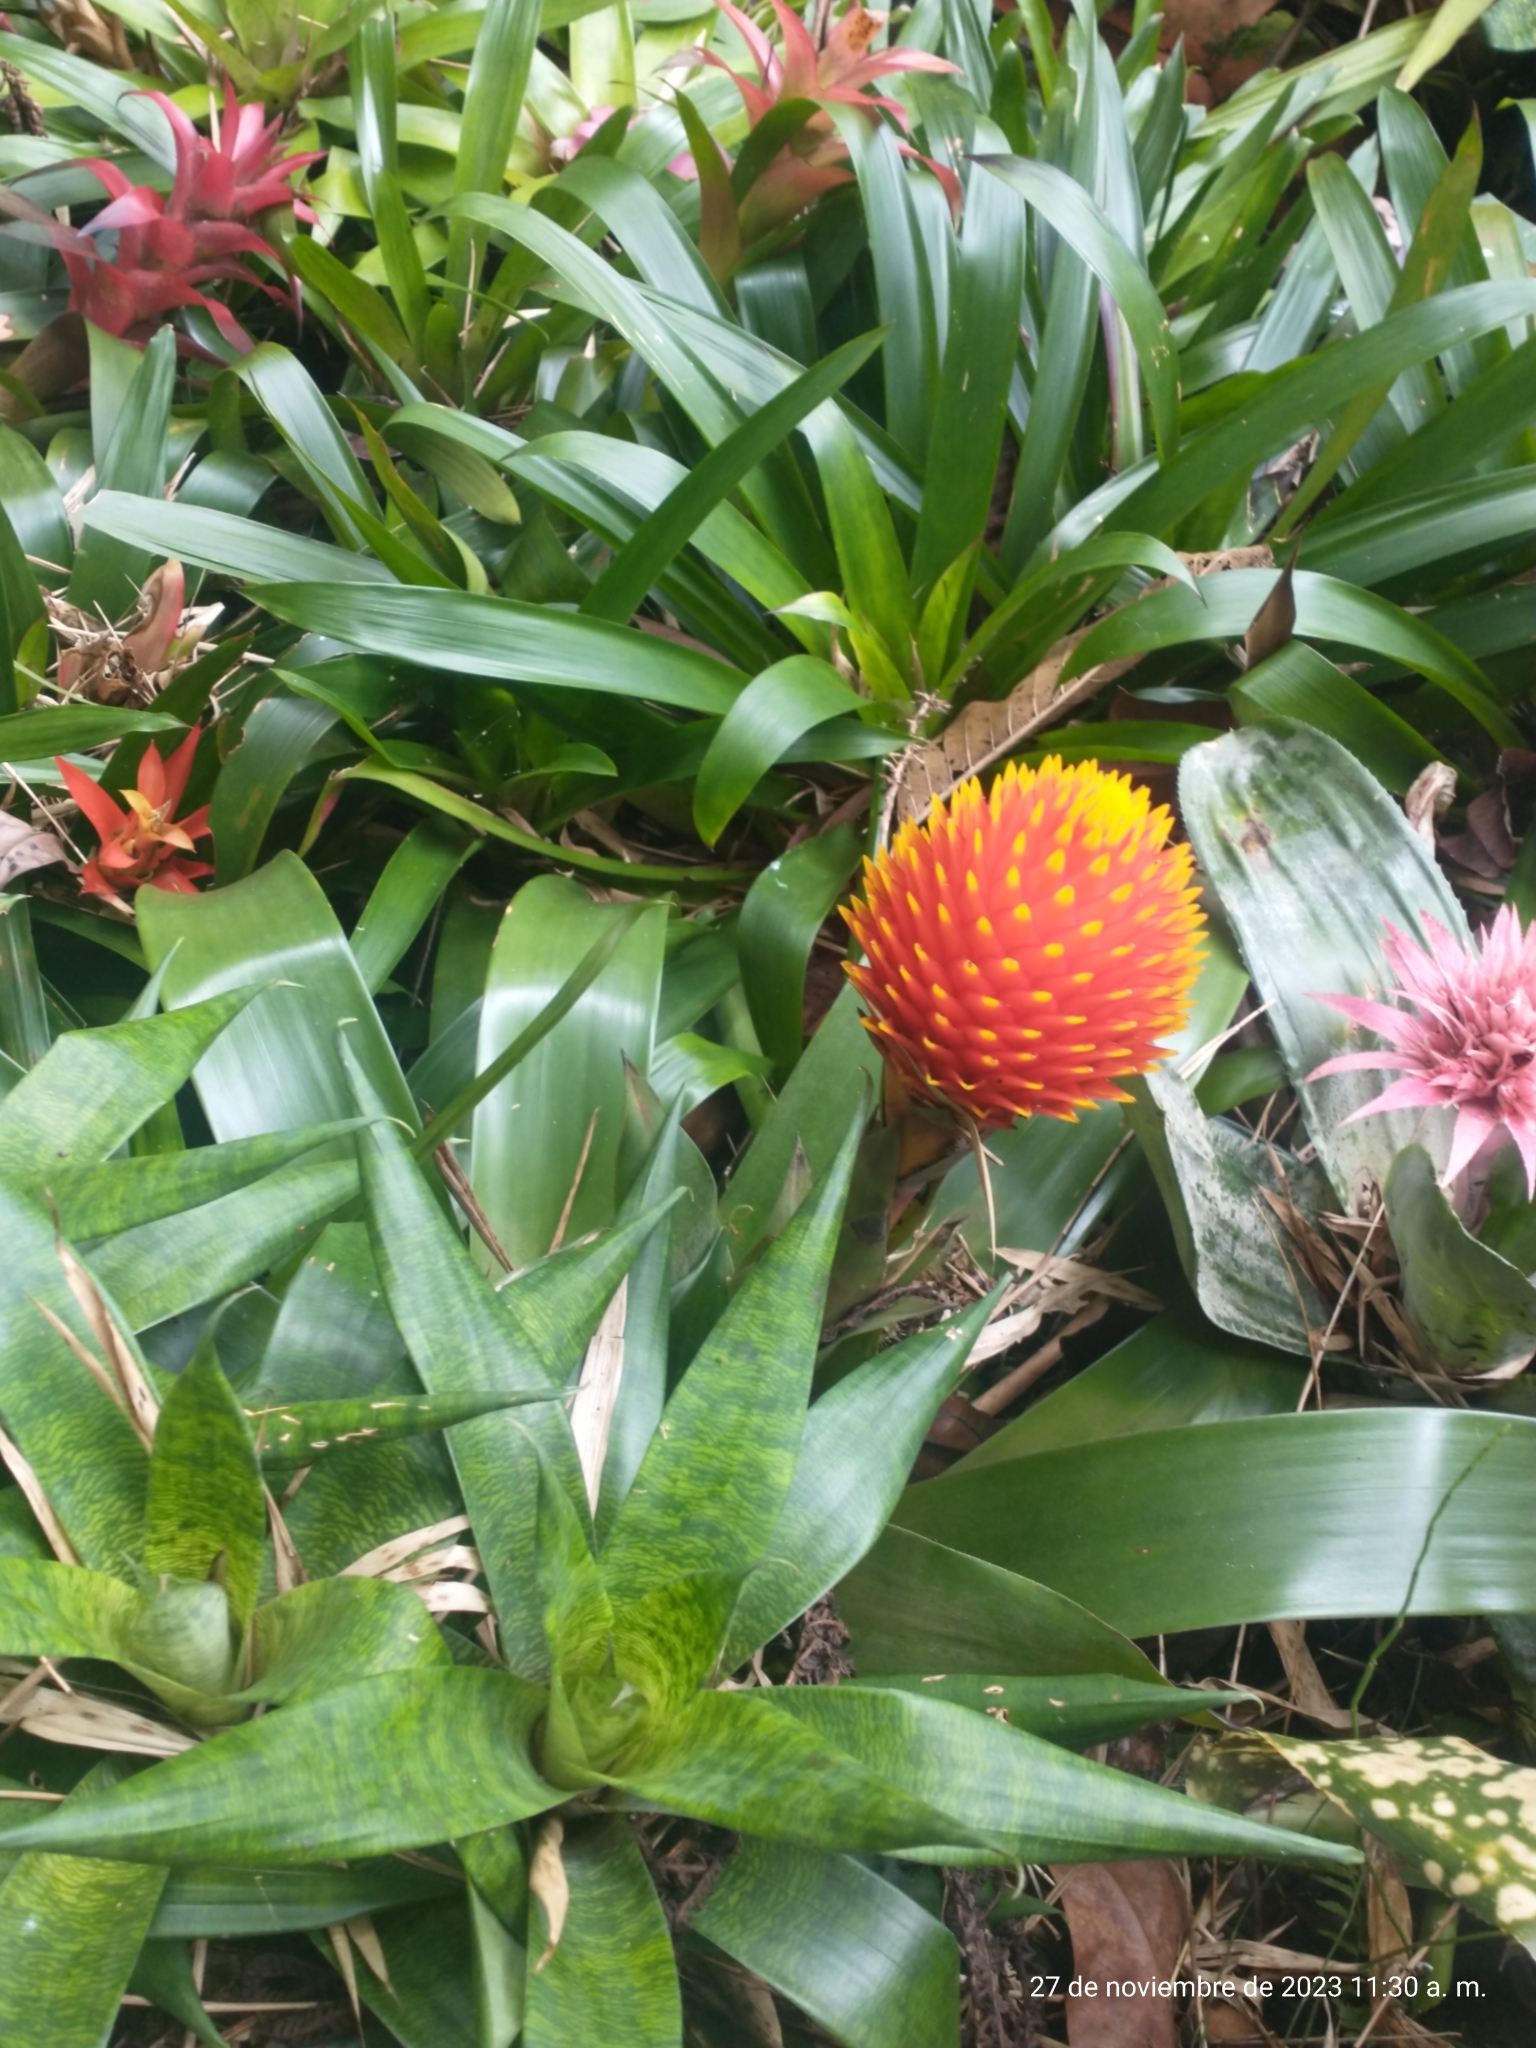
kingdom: Plantae
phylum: Tracheophyta
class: Liliopsida
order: Poales
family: Bromeliaceae
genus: Guzmania
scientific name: Guzmania conifera
